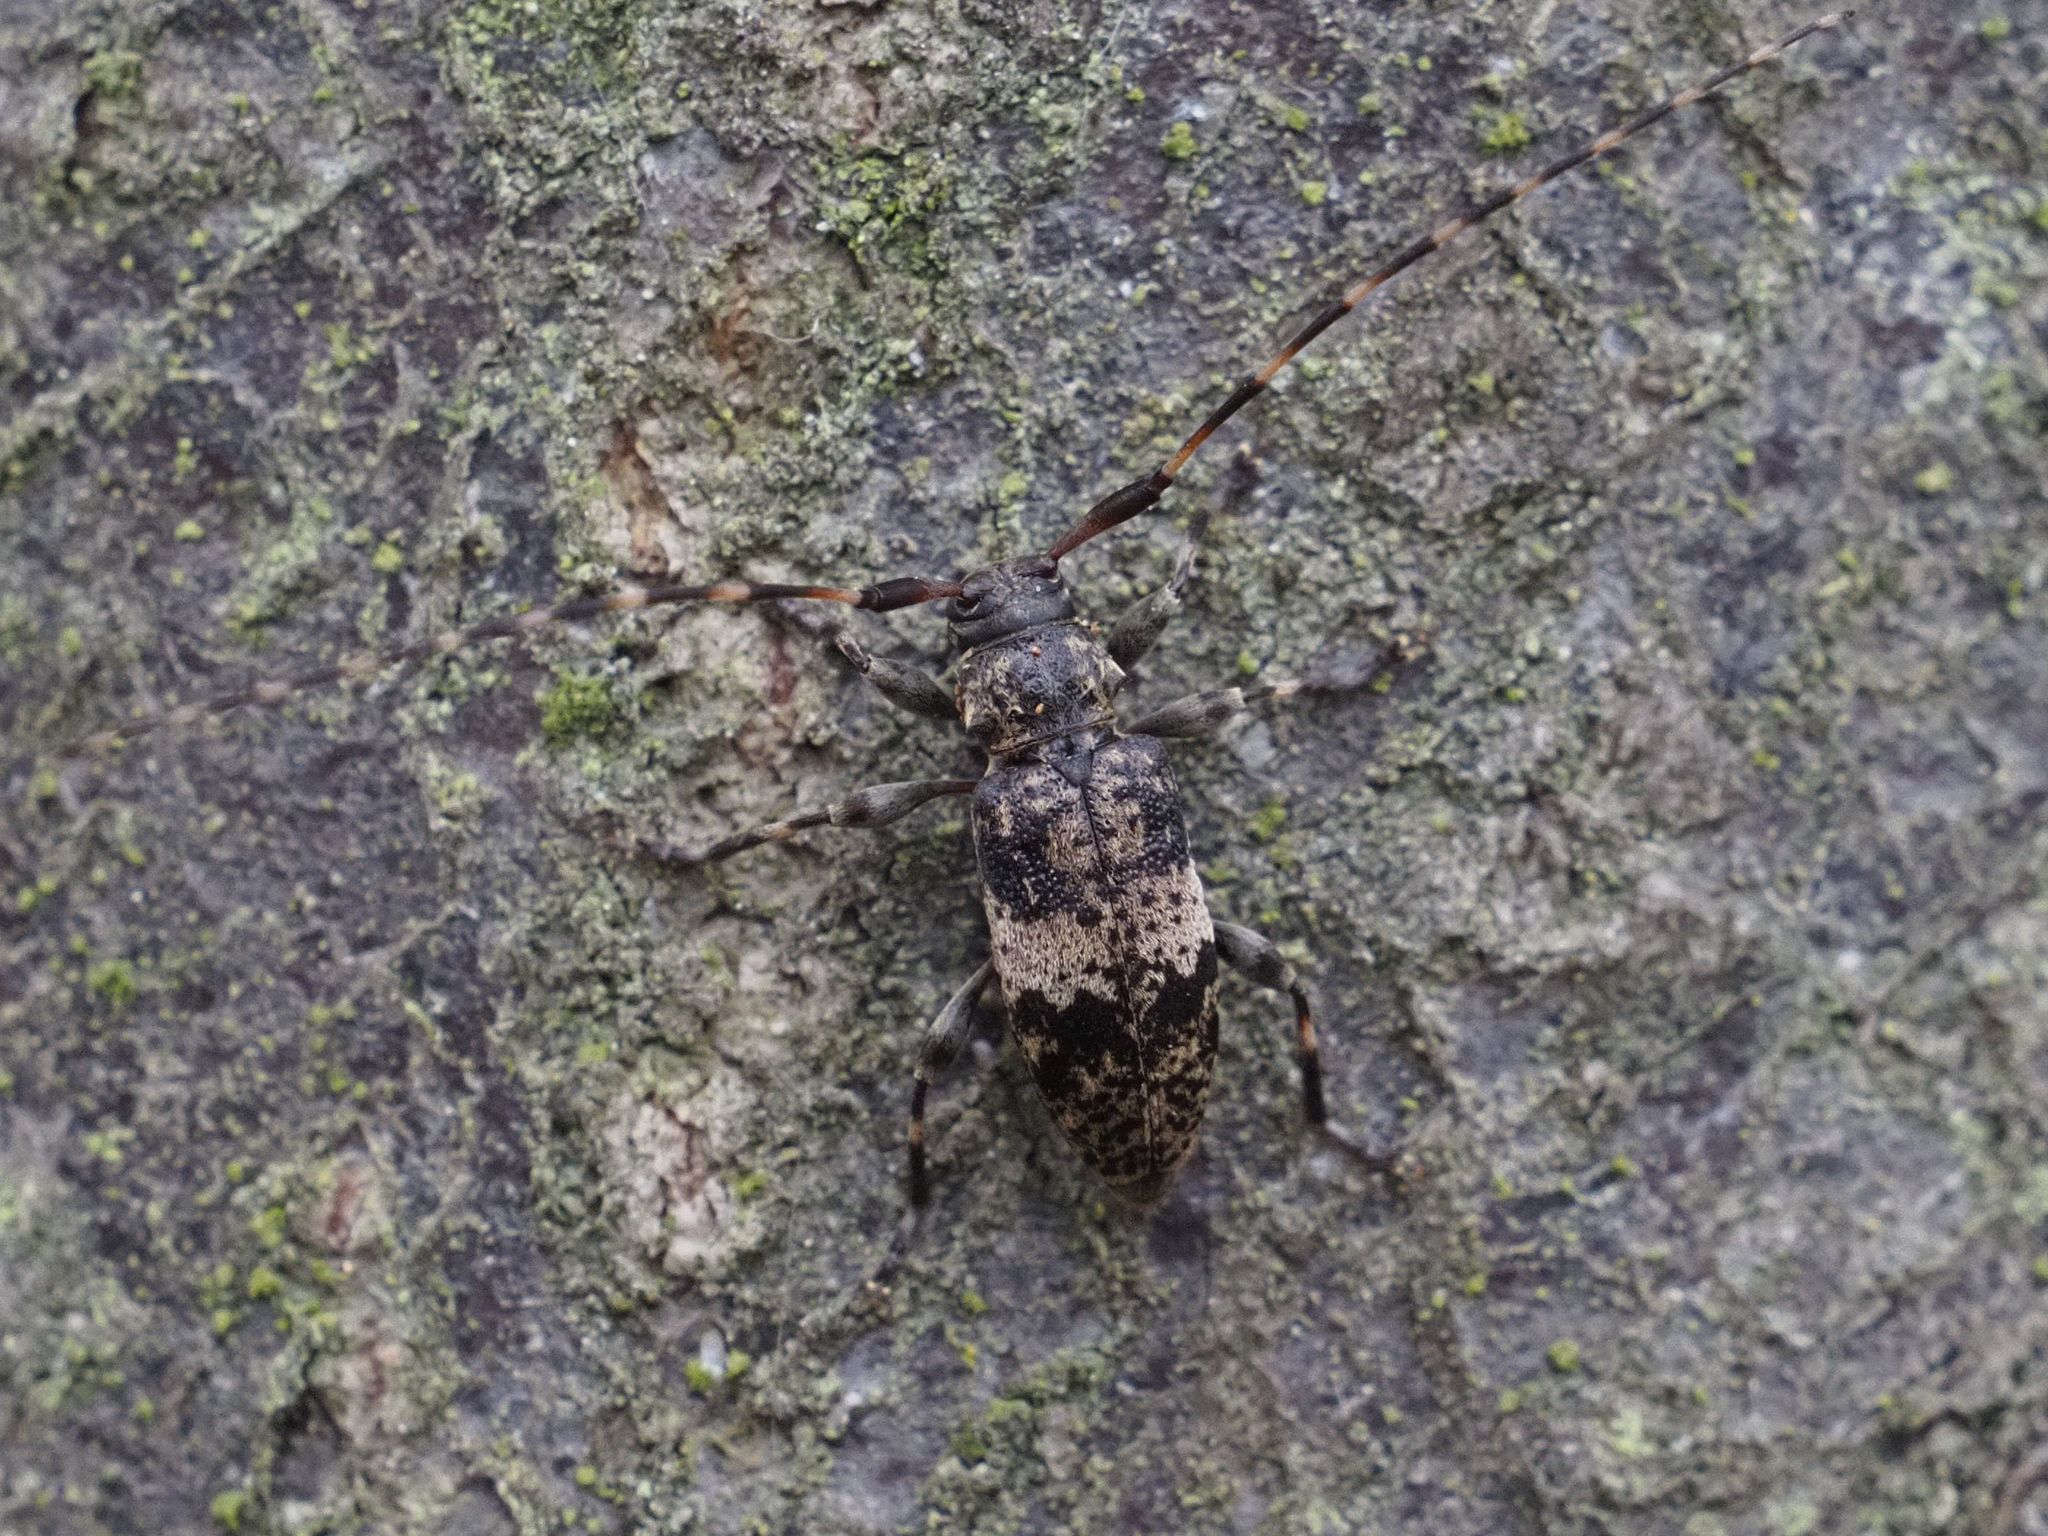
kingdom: Animalia
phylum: Arthropoda
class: Insecta
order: Coleoptera
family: Cerambycidae
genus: Leiopus
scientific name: Leiopus linnei
